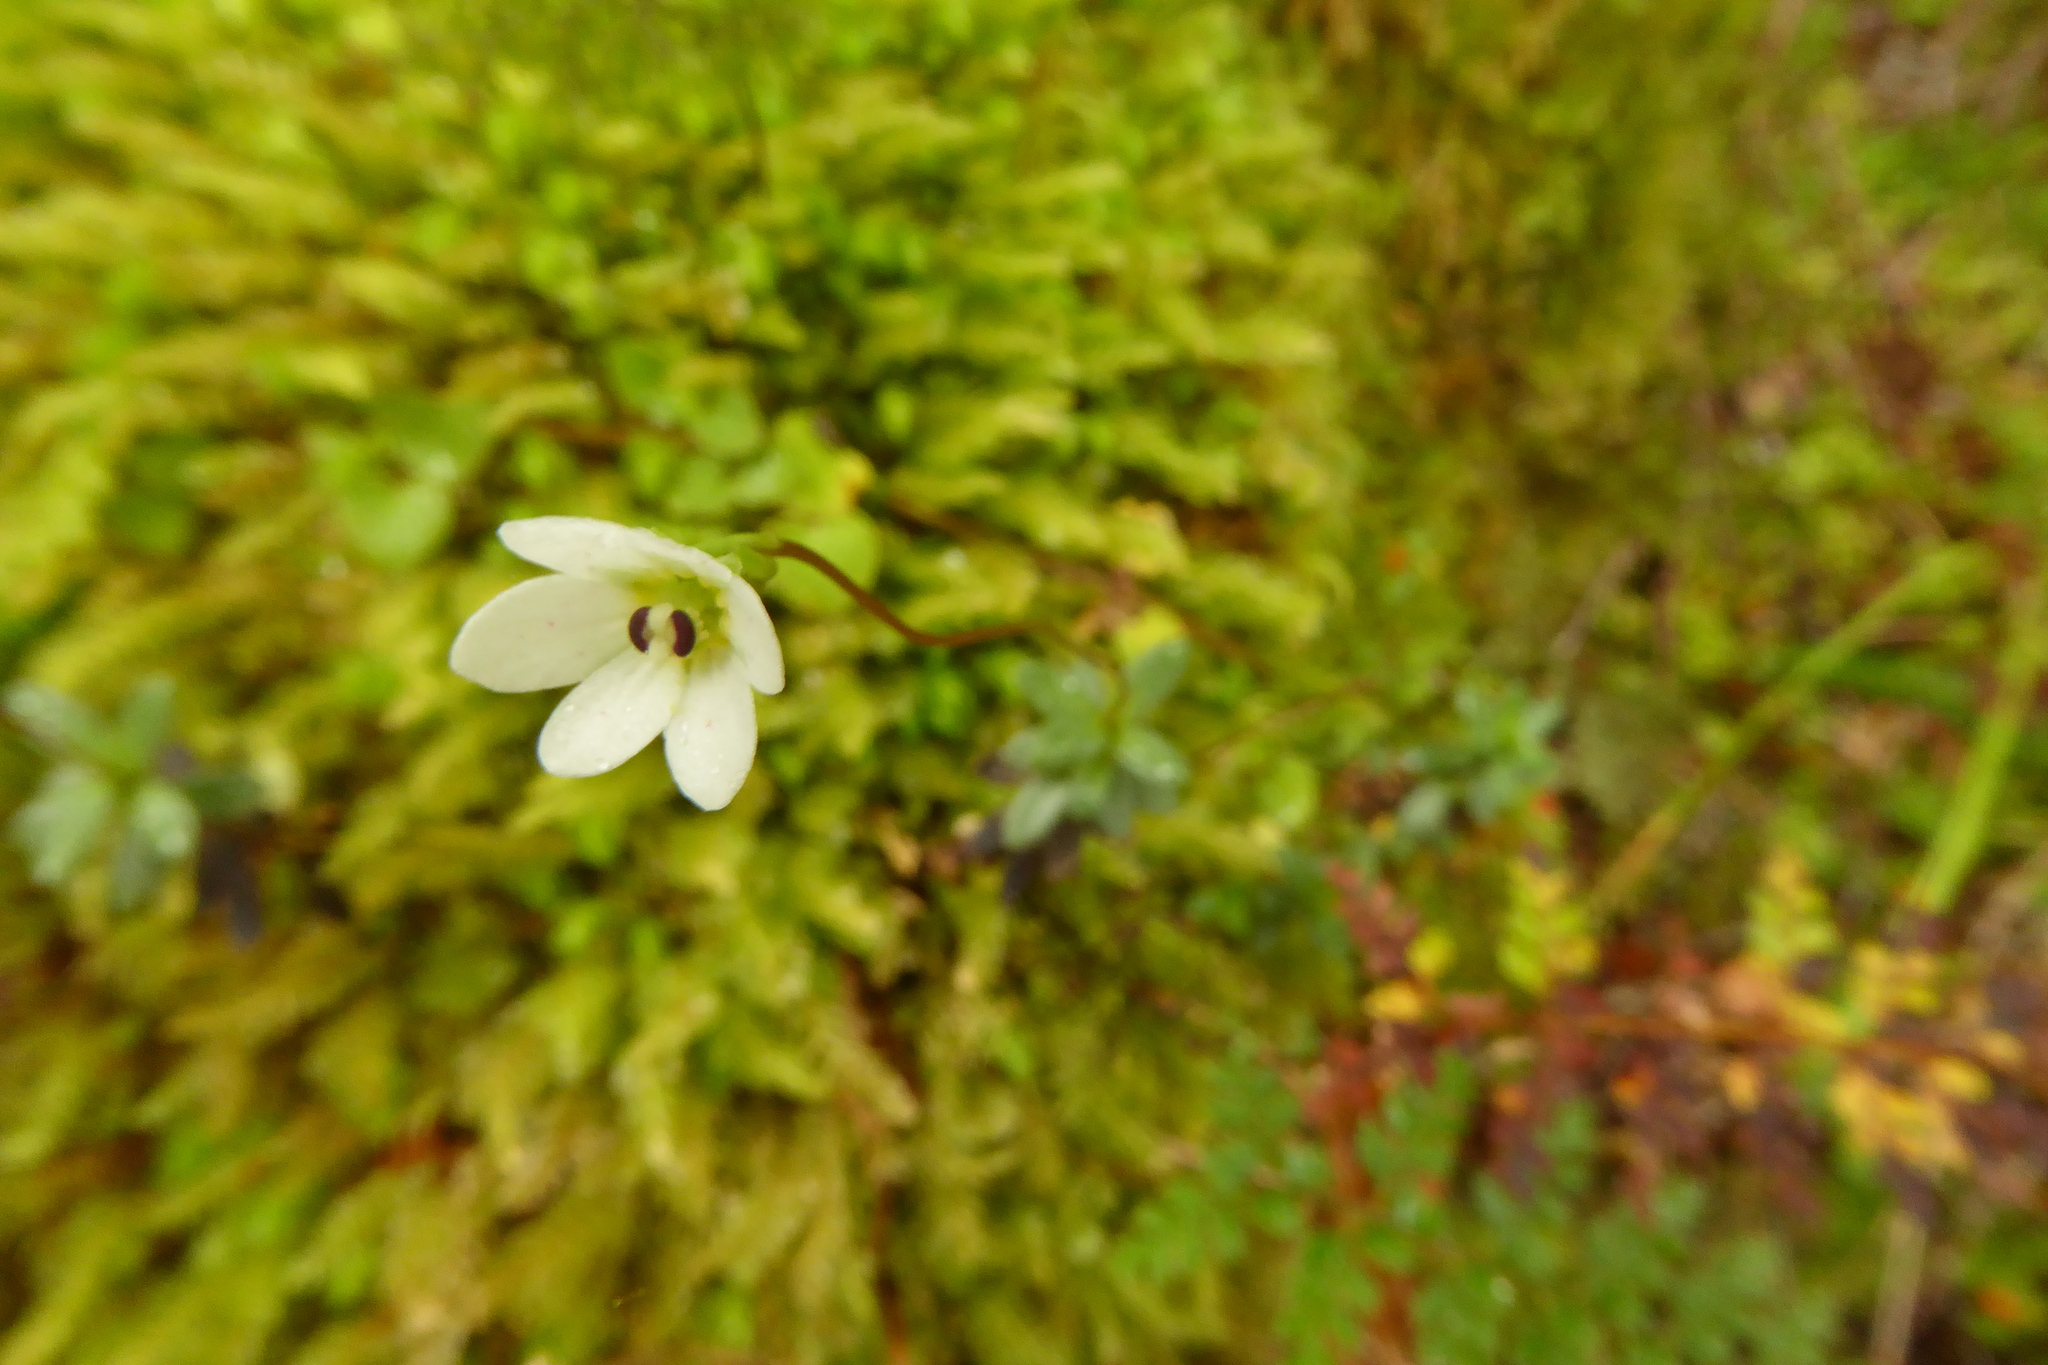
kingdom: Plantae
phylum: Tracheophyta
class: Magnoliopsida
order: Asterales
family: Stylidiaceae
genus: Forstera
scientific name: Forstera tenella
